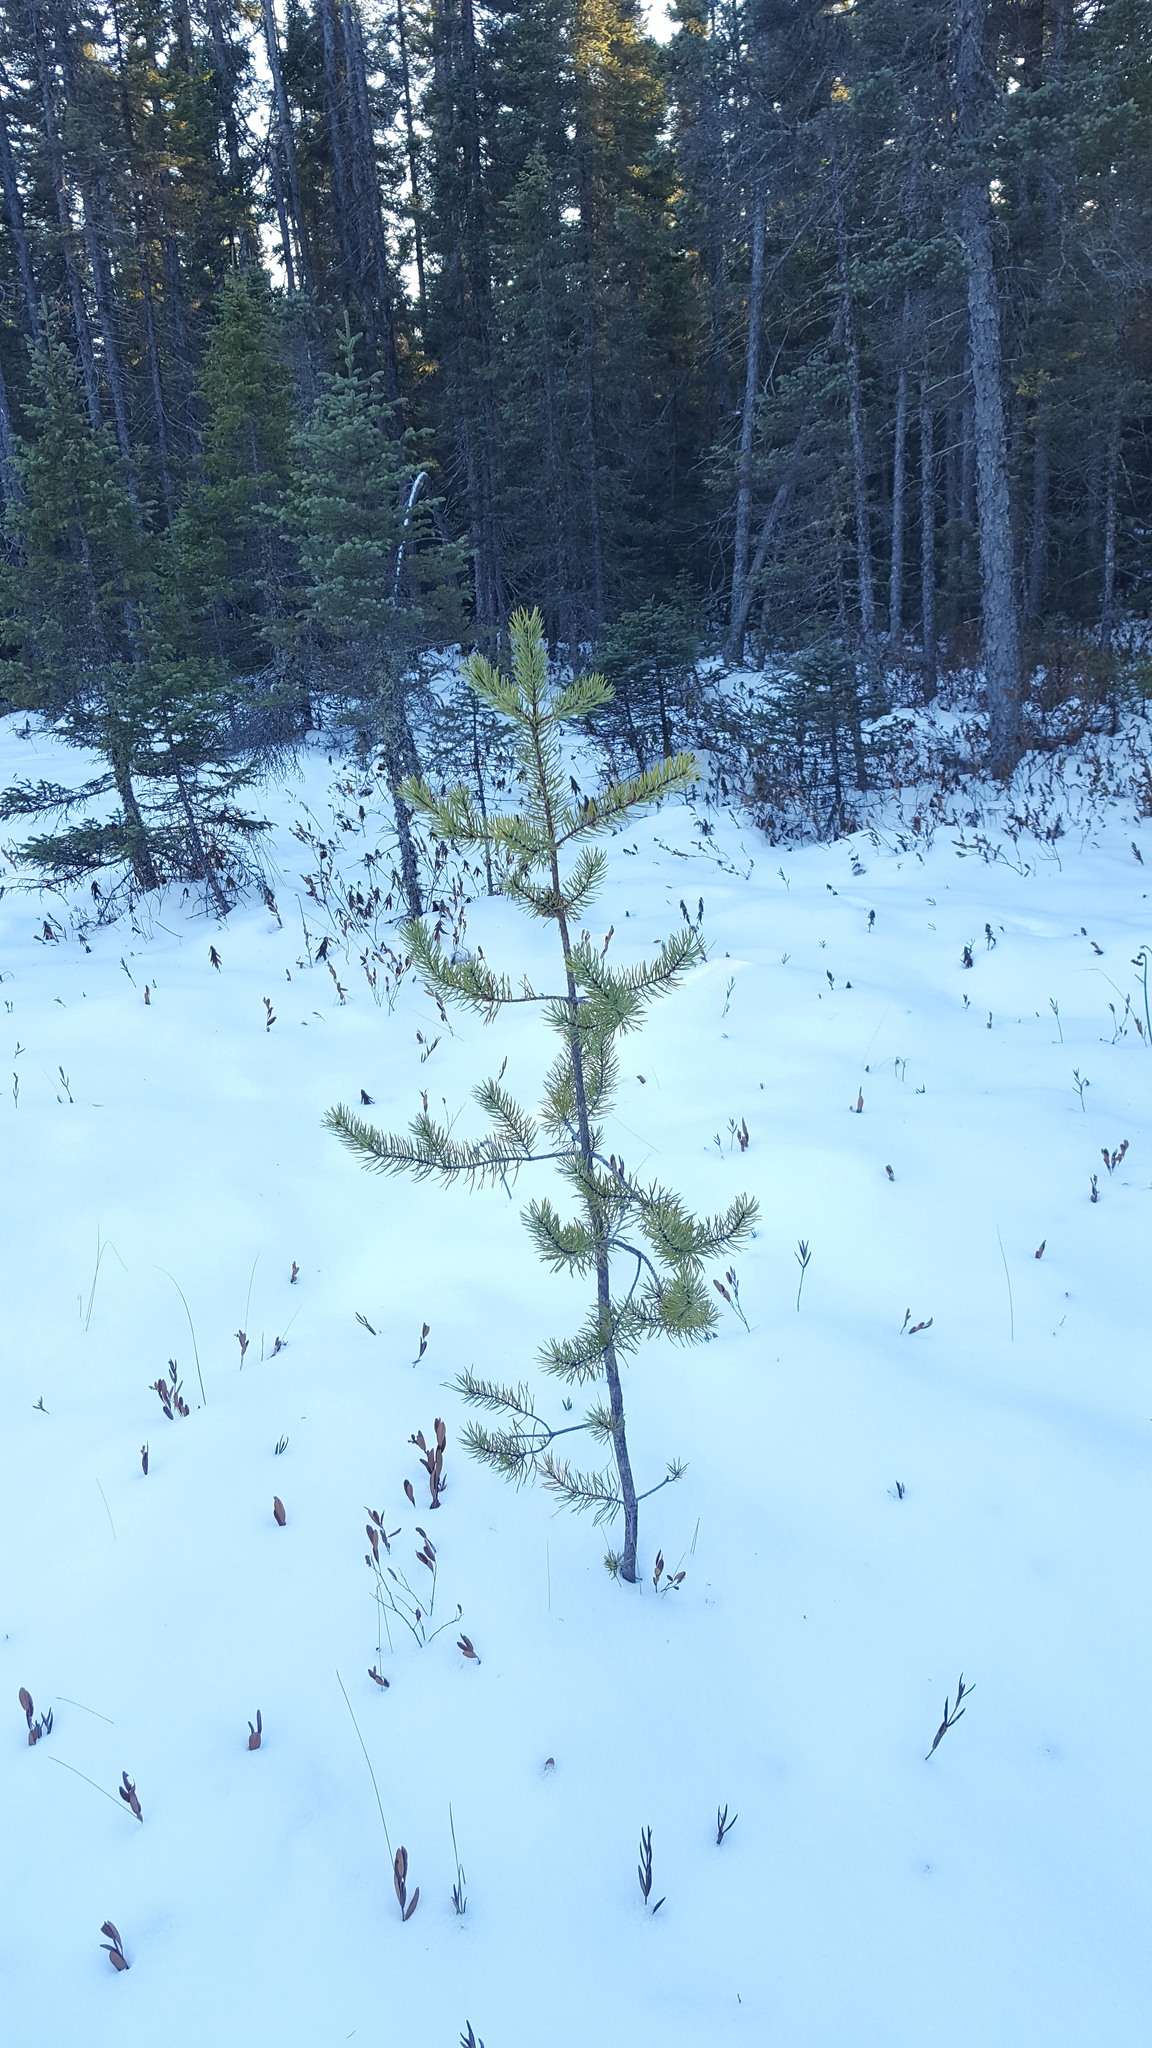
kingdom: Plantae
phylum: Tracheophyta
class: Pinopsida
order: Pinales
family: Pinaceae
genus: Pinus
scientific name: Pinus banksiana
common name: Jack pine
